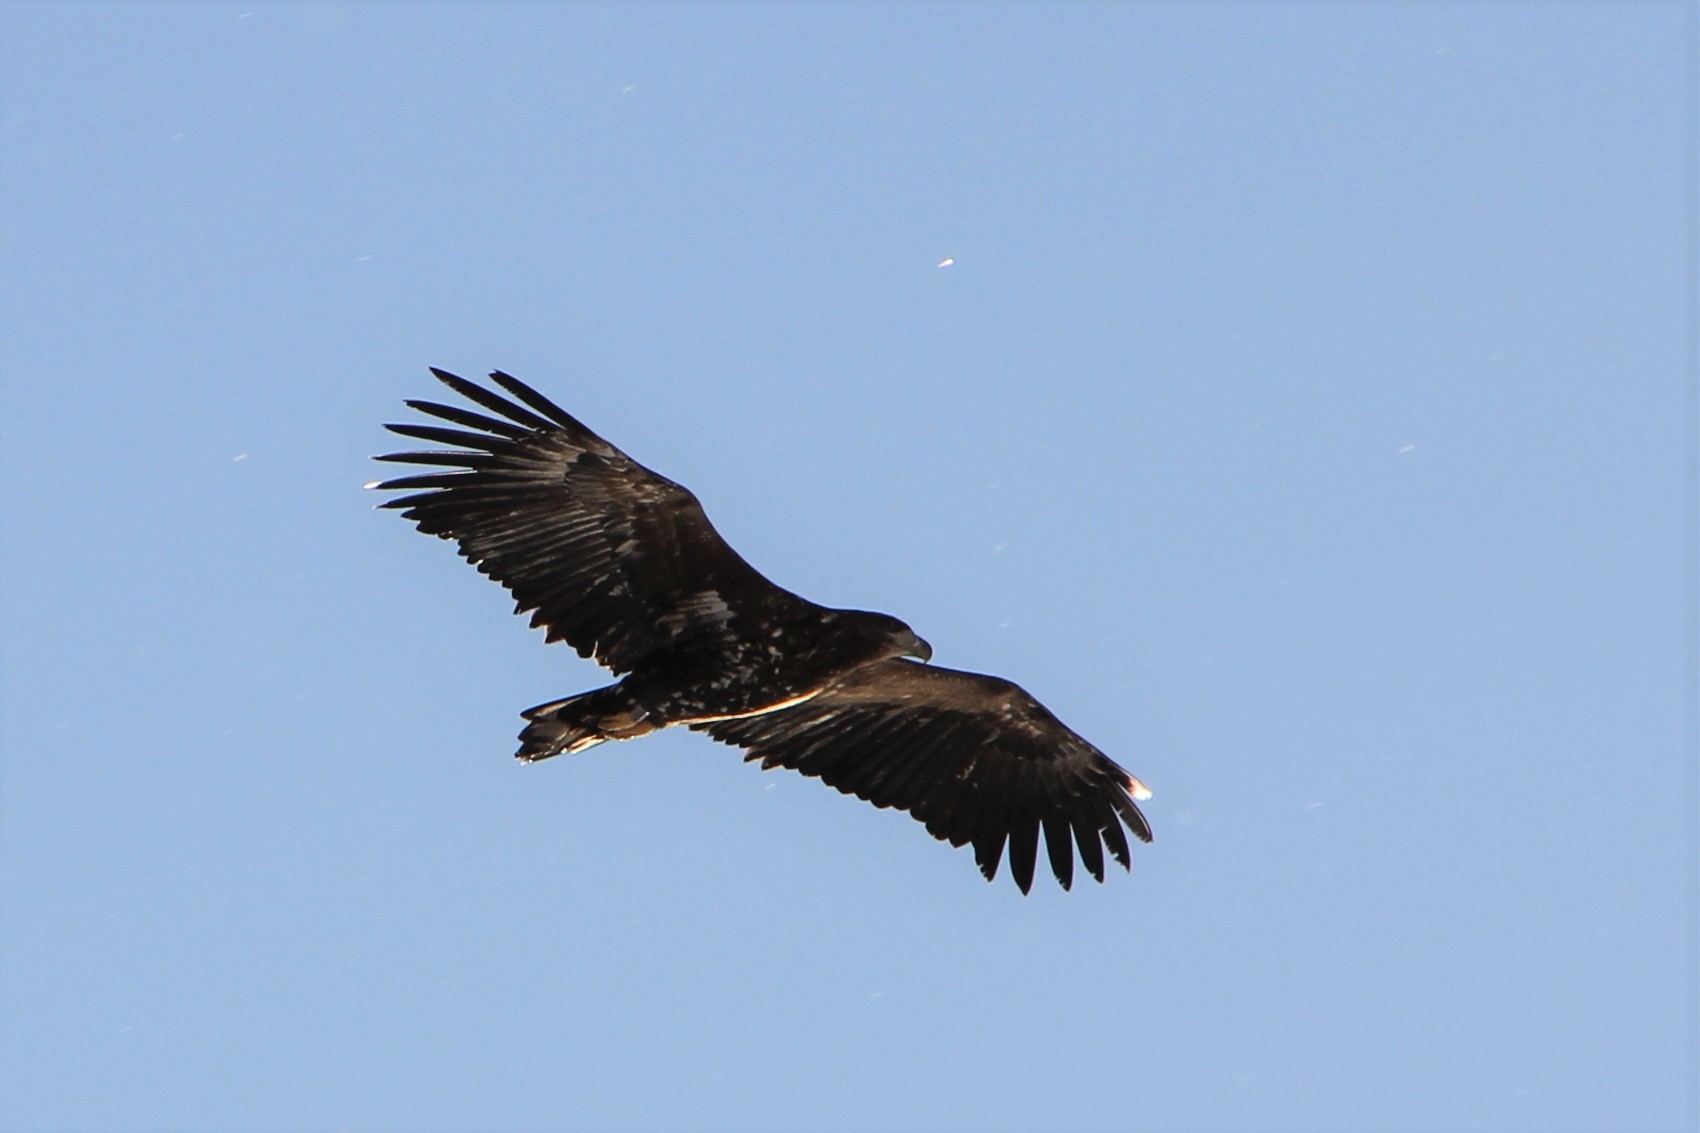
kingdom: Animalia
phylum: Chordata
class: Aves
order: Accipitriformes
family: Accipitridae
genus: Haliaeetus
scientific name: Haliaeetus albicilla
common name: White-tailed eagle
